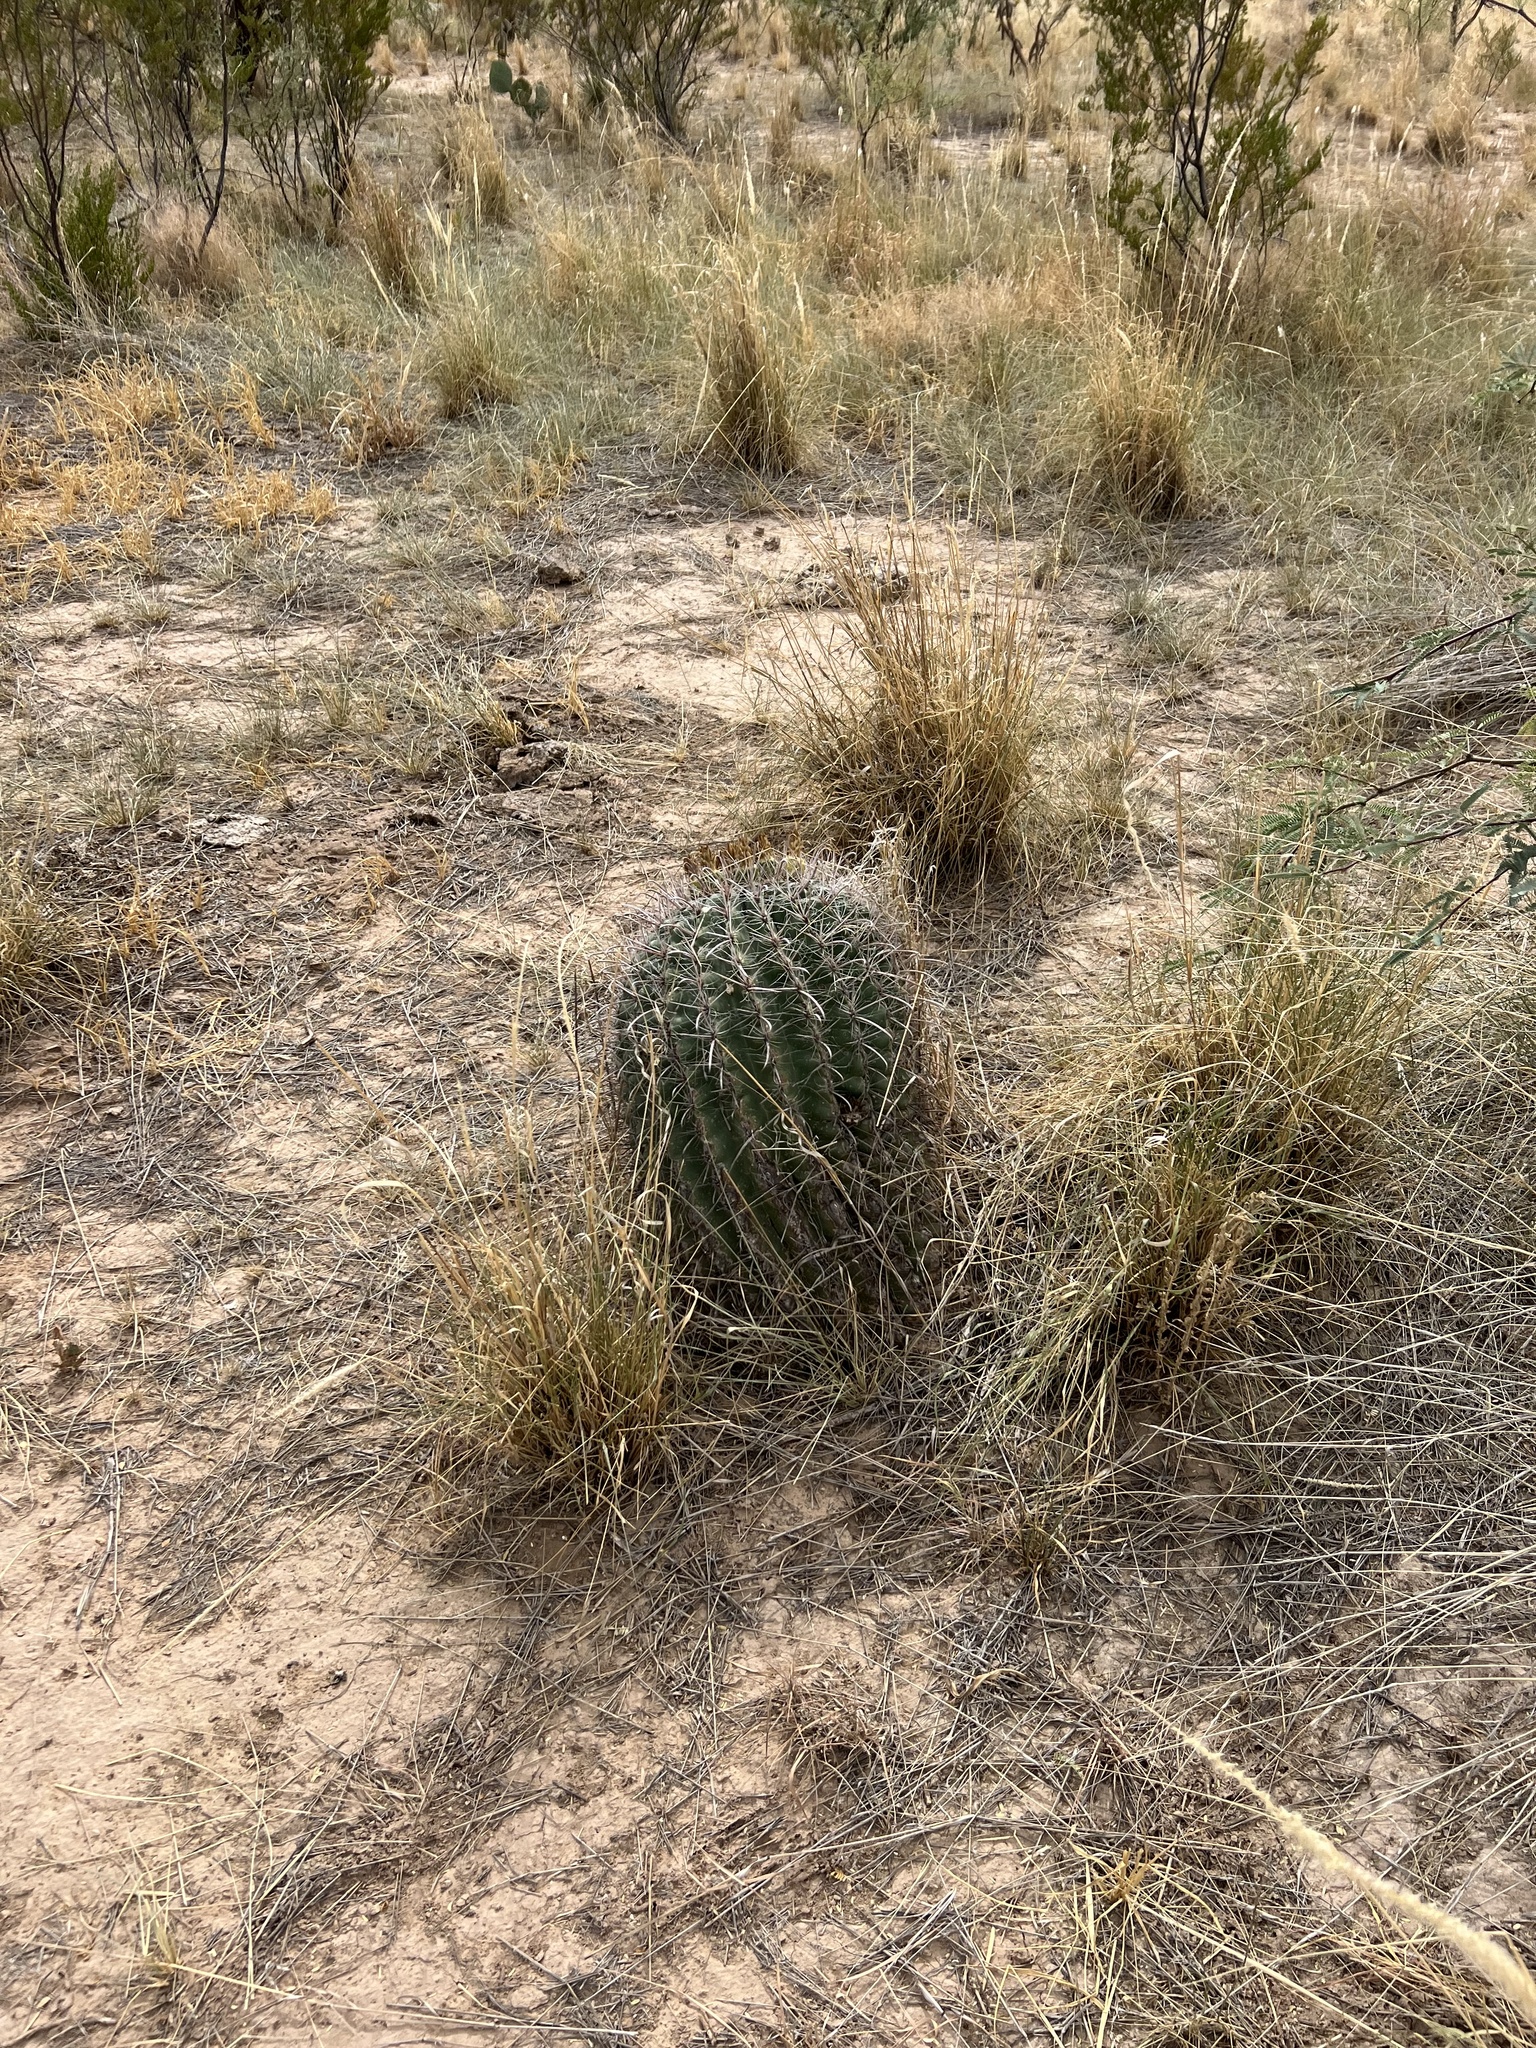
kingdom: Plantae
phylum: Tracheophyta
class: Magnoliopsida
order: Caryophyllales
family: Cactaceae
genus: Ferocactus
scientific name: Ferocactus wislizeni
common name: Candy barrel cactus
